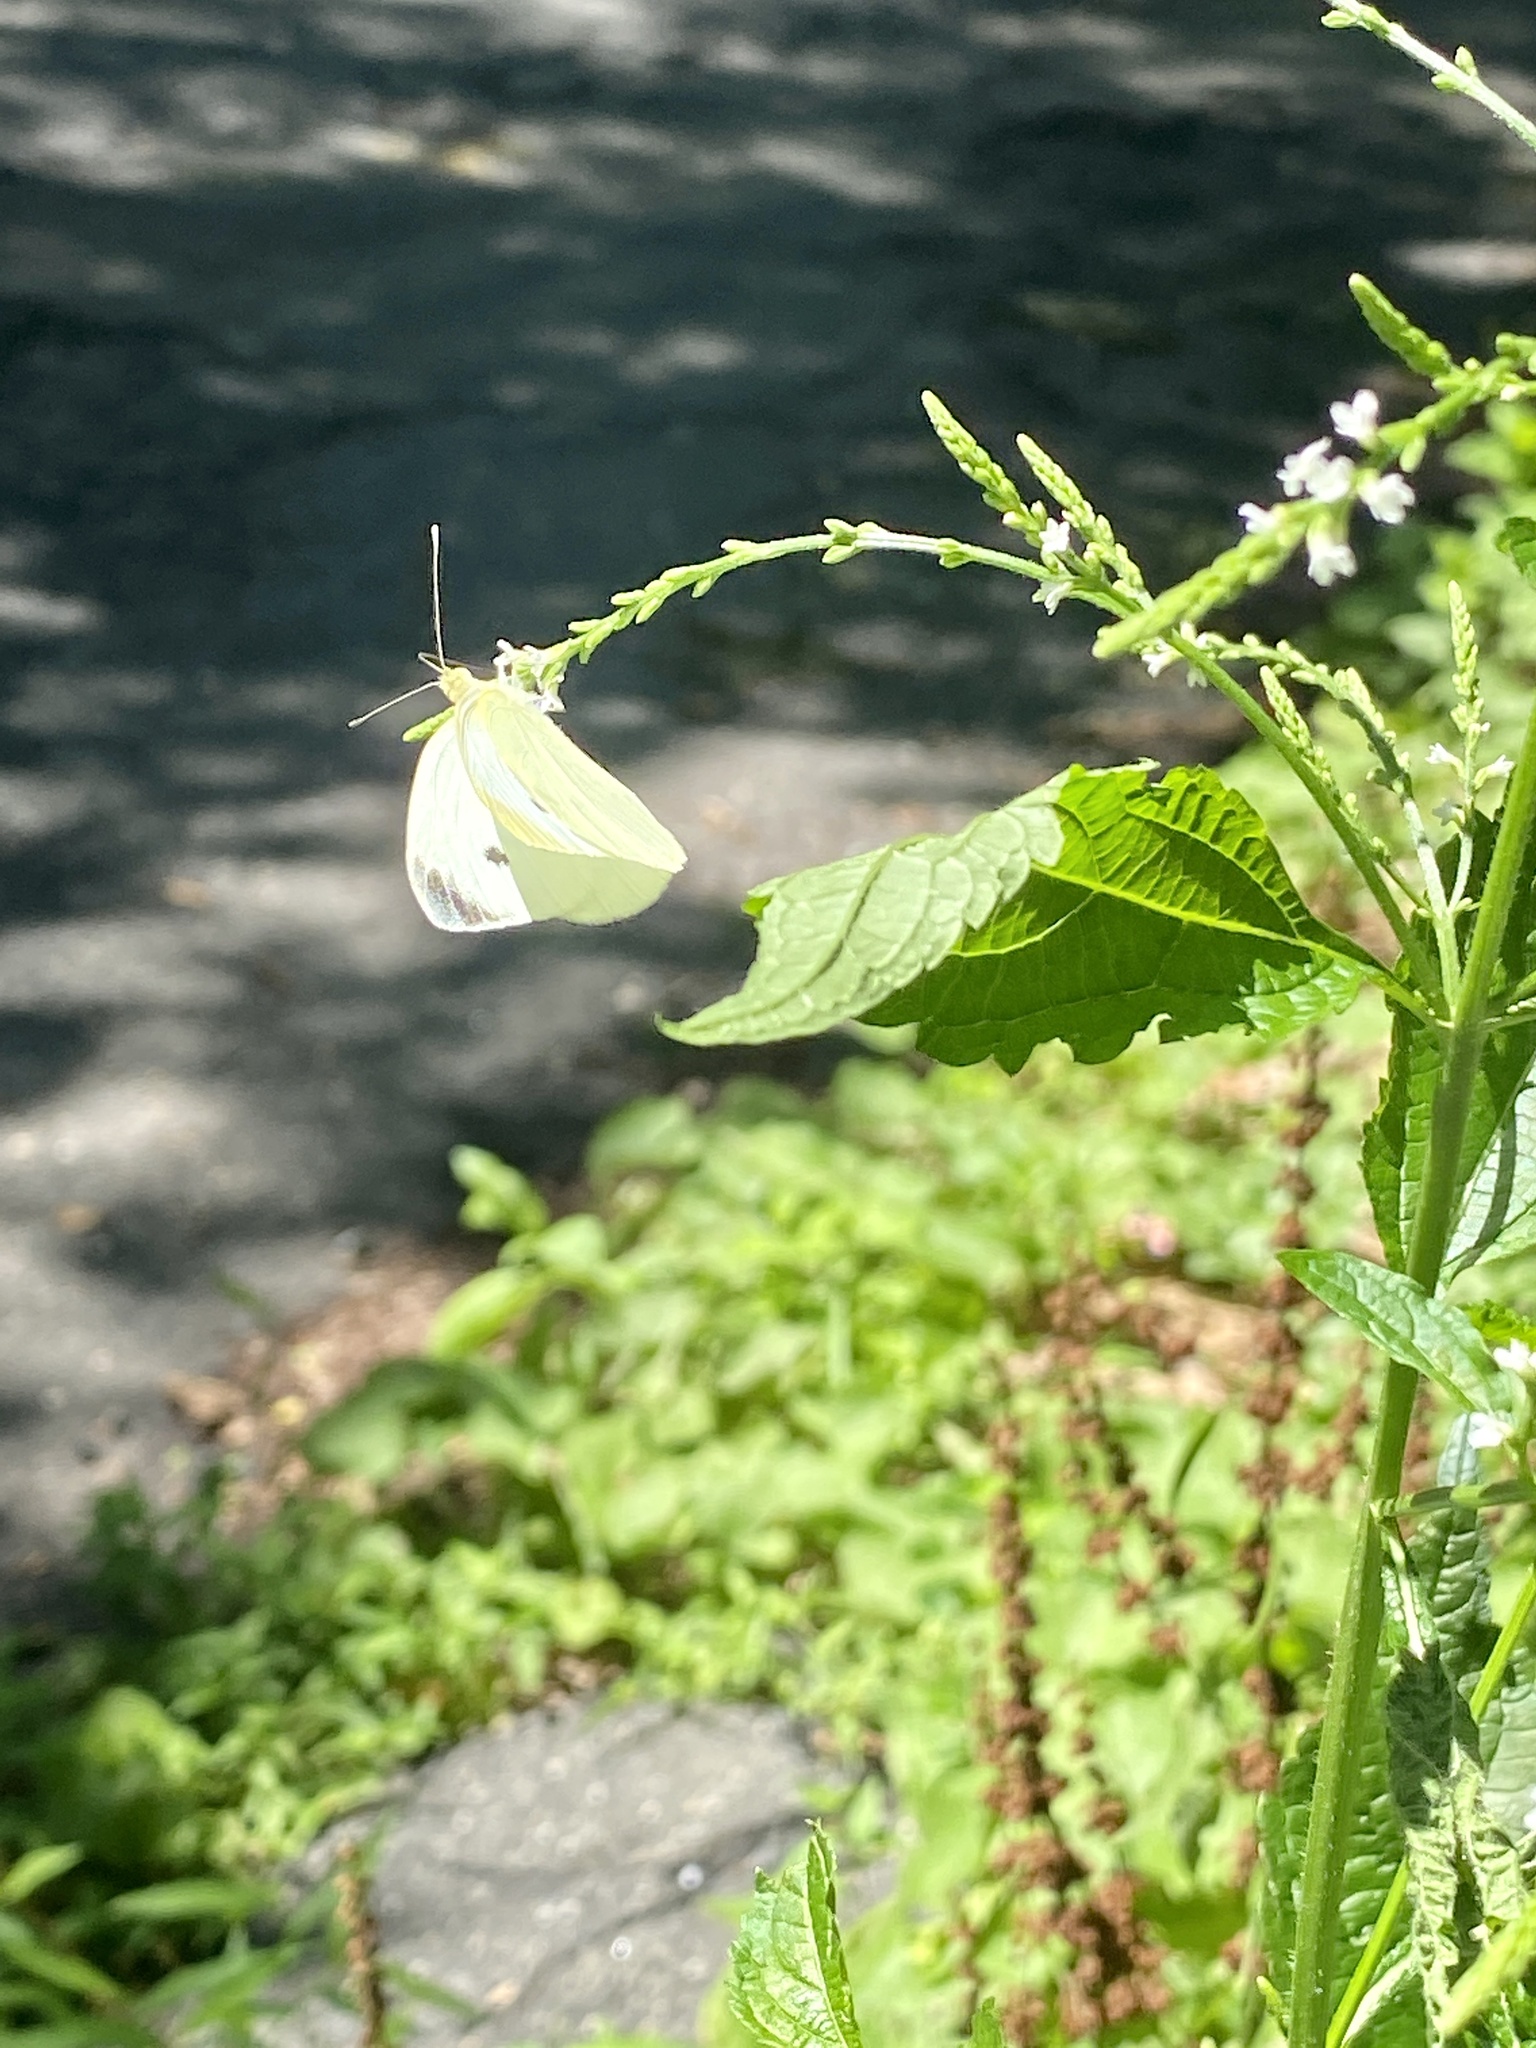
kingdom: Animalia
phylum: Arthropoda
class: Insecta
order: Lepidoptera
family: Pieridae
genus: Pieris
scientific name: Pieris rapae
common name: Small white
